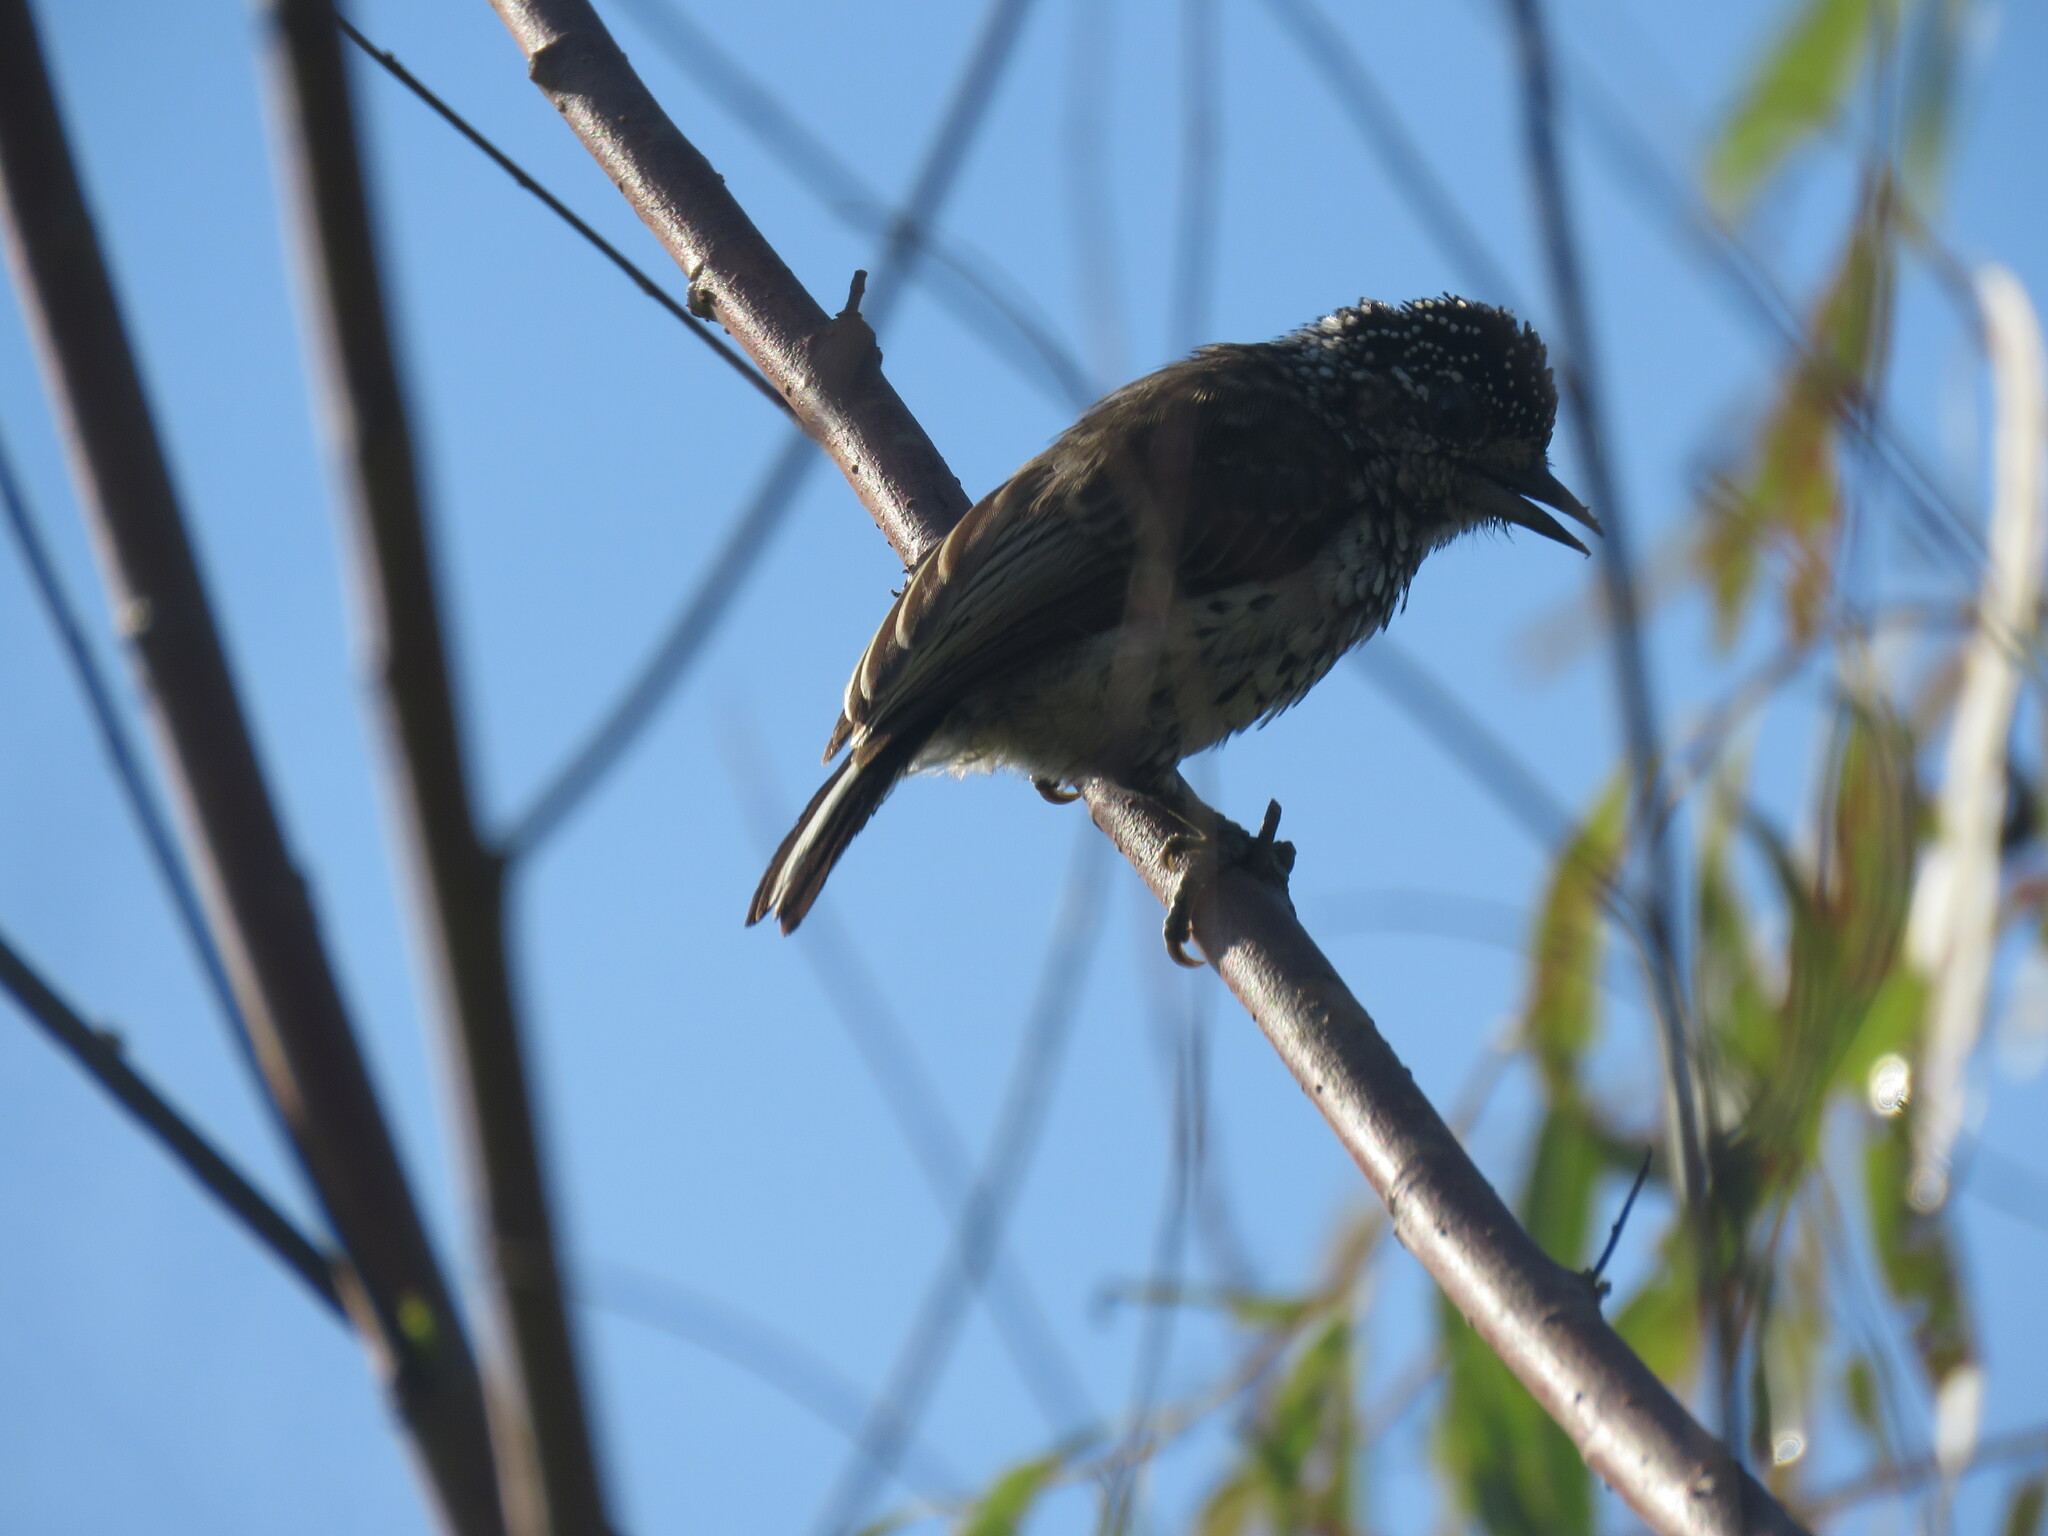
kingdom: Animalia
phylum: Chordata
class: Aves
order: Piciformes
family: Picidae
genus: Picumnus
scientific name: Picumnus albosquamatus
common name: White-wedged piculet
